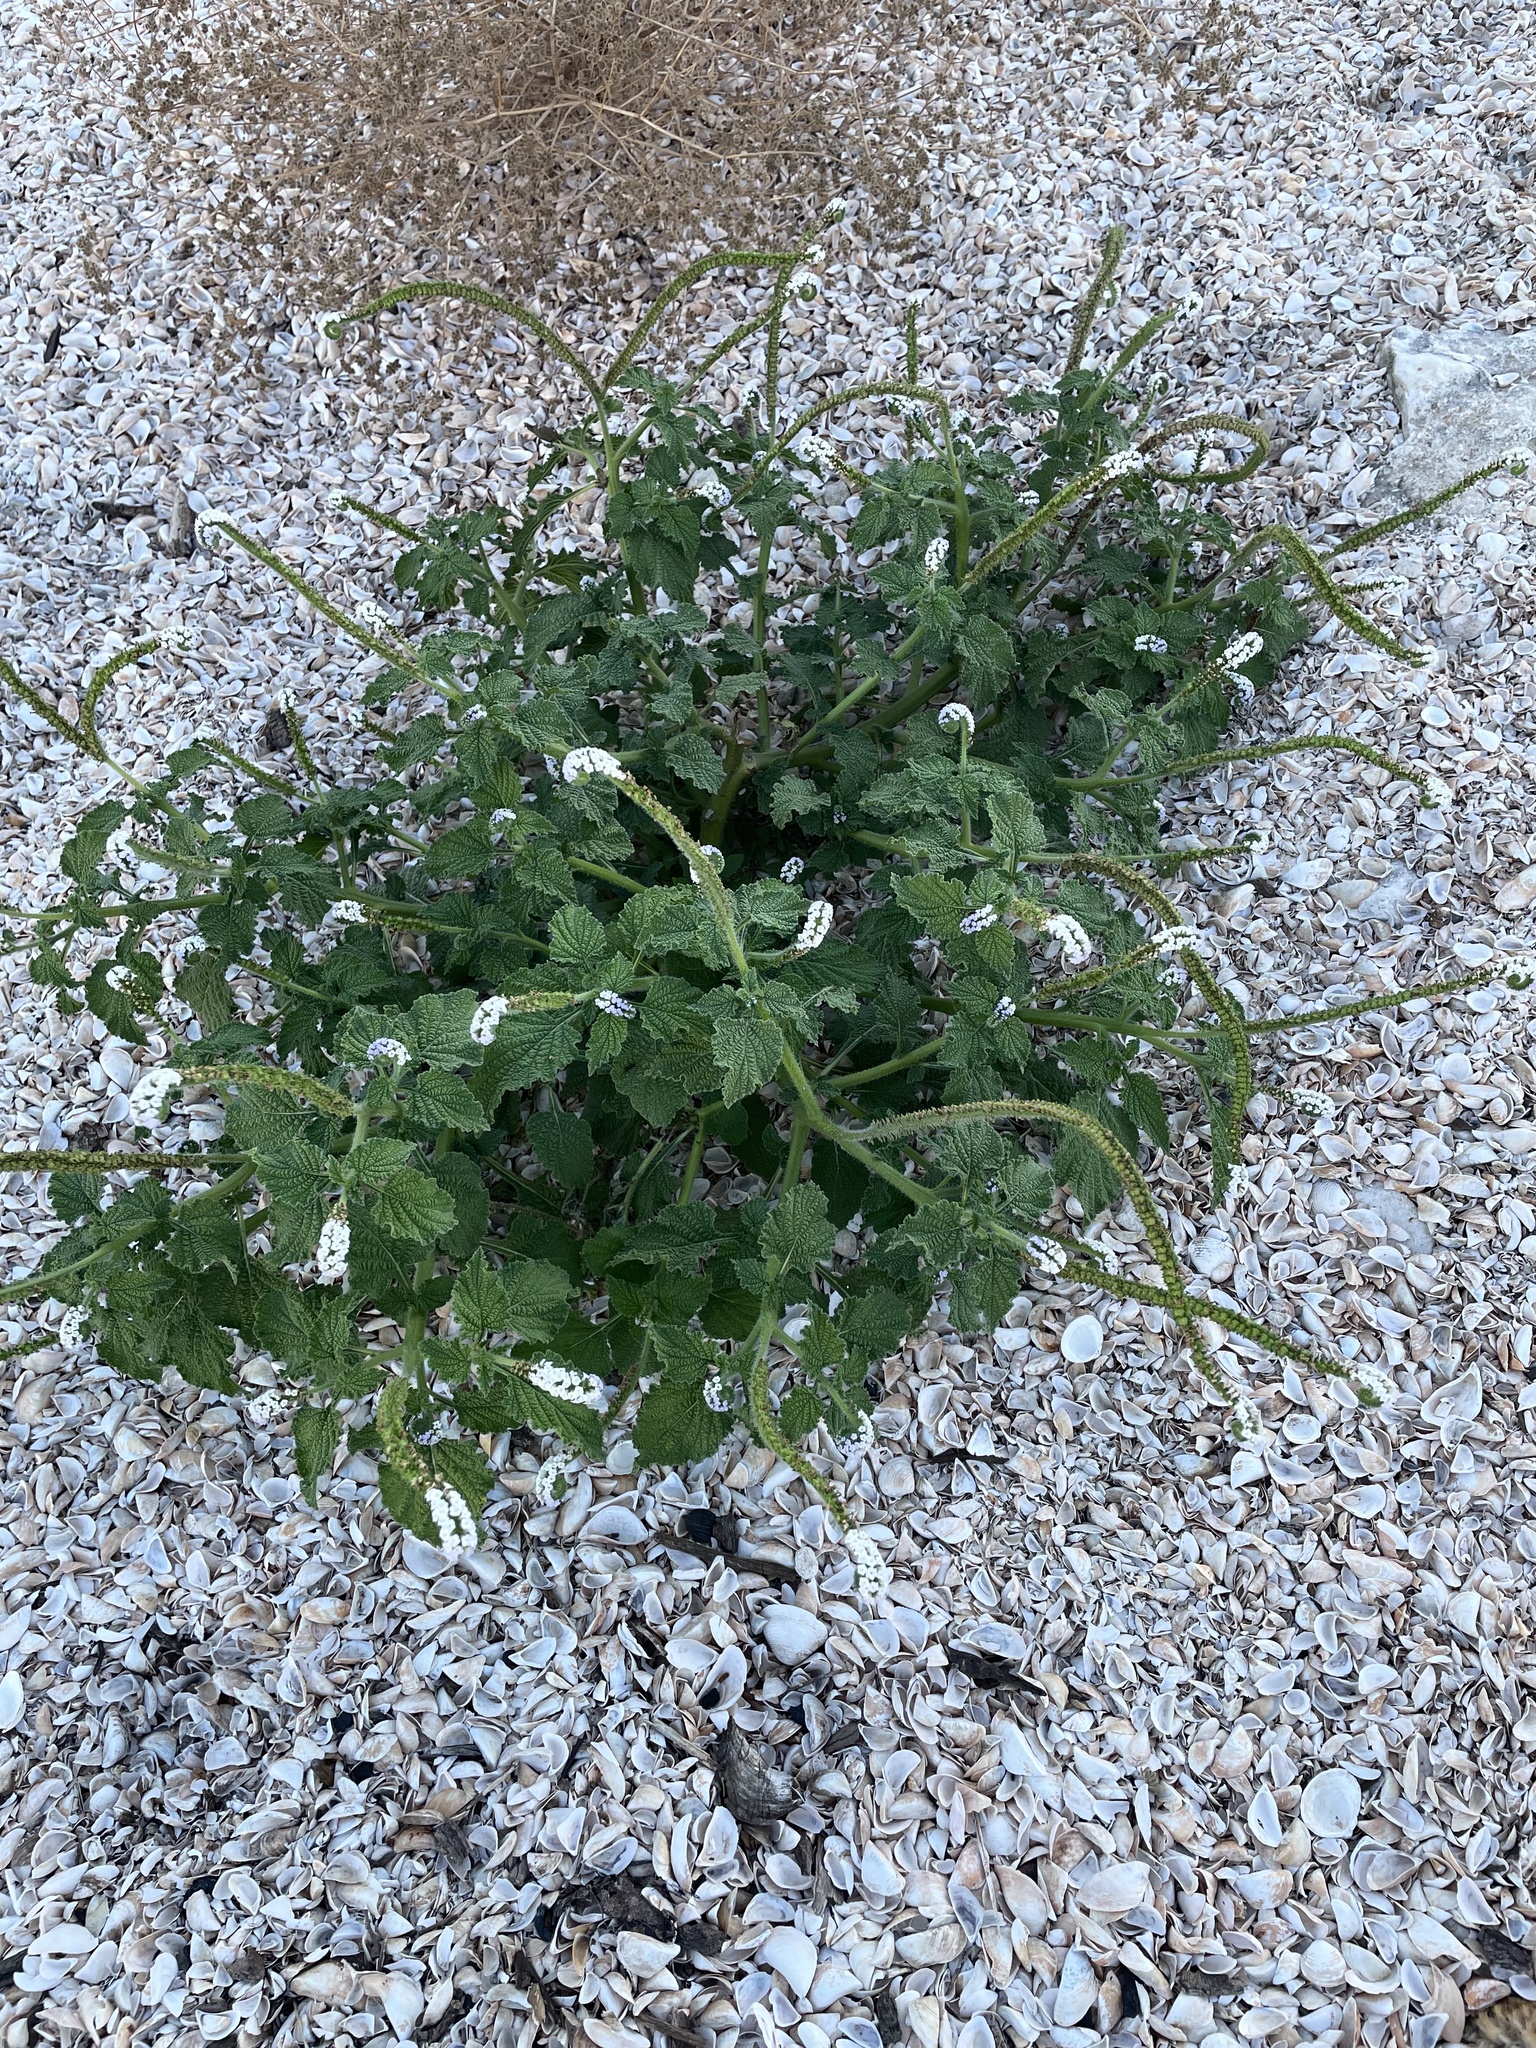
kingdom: Plantae
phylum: Tracheophyta
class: Magnoliopsida
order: Boraginales
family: Heliotropiaceae
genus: Heliotropium
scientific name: Heliotropium indicum
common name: Indian heliotrope
